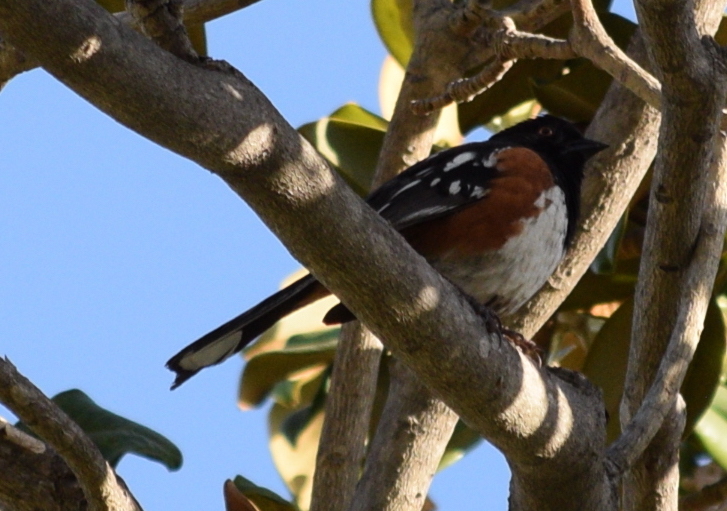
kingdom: Animalia
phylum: Chordata
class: Aves
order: Passeriformes
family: Passerellidae
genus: Pipilo
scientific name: Pipilo maculatus
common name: Spotted towhee
